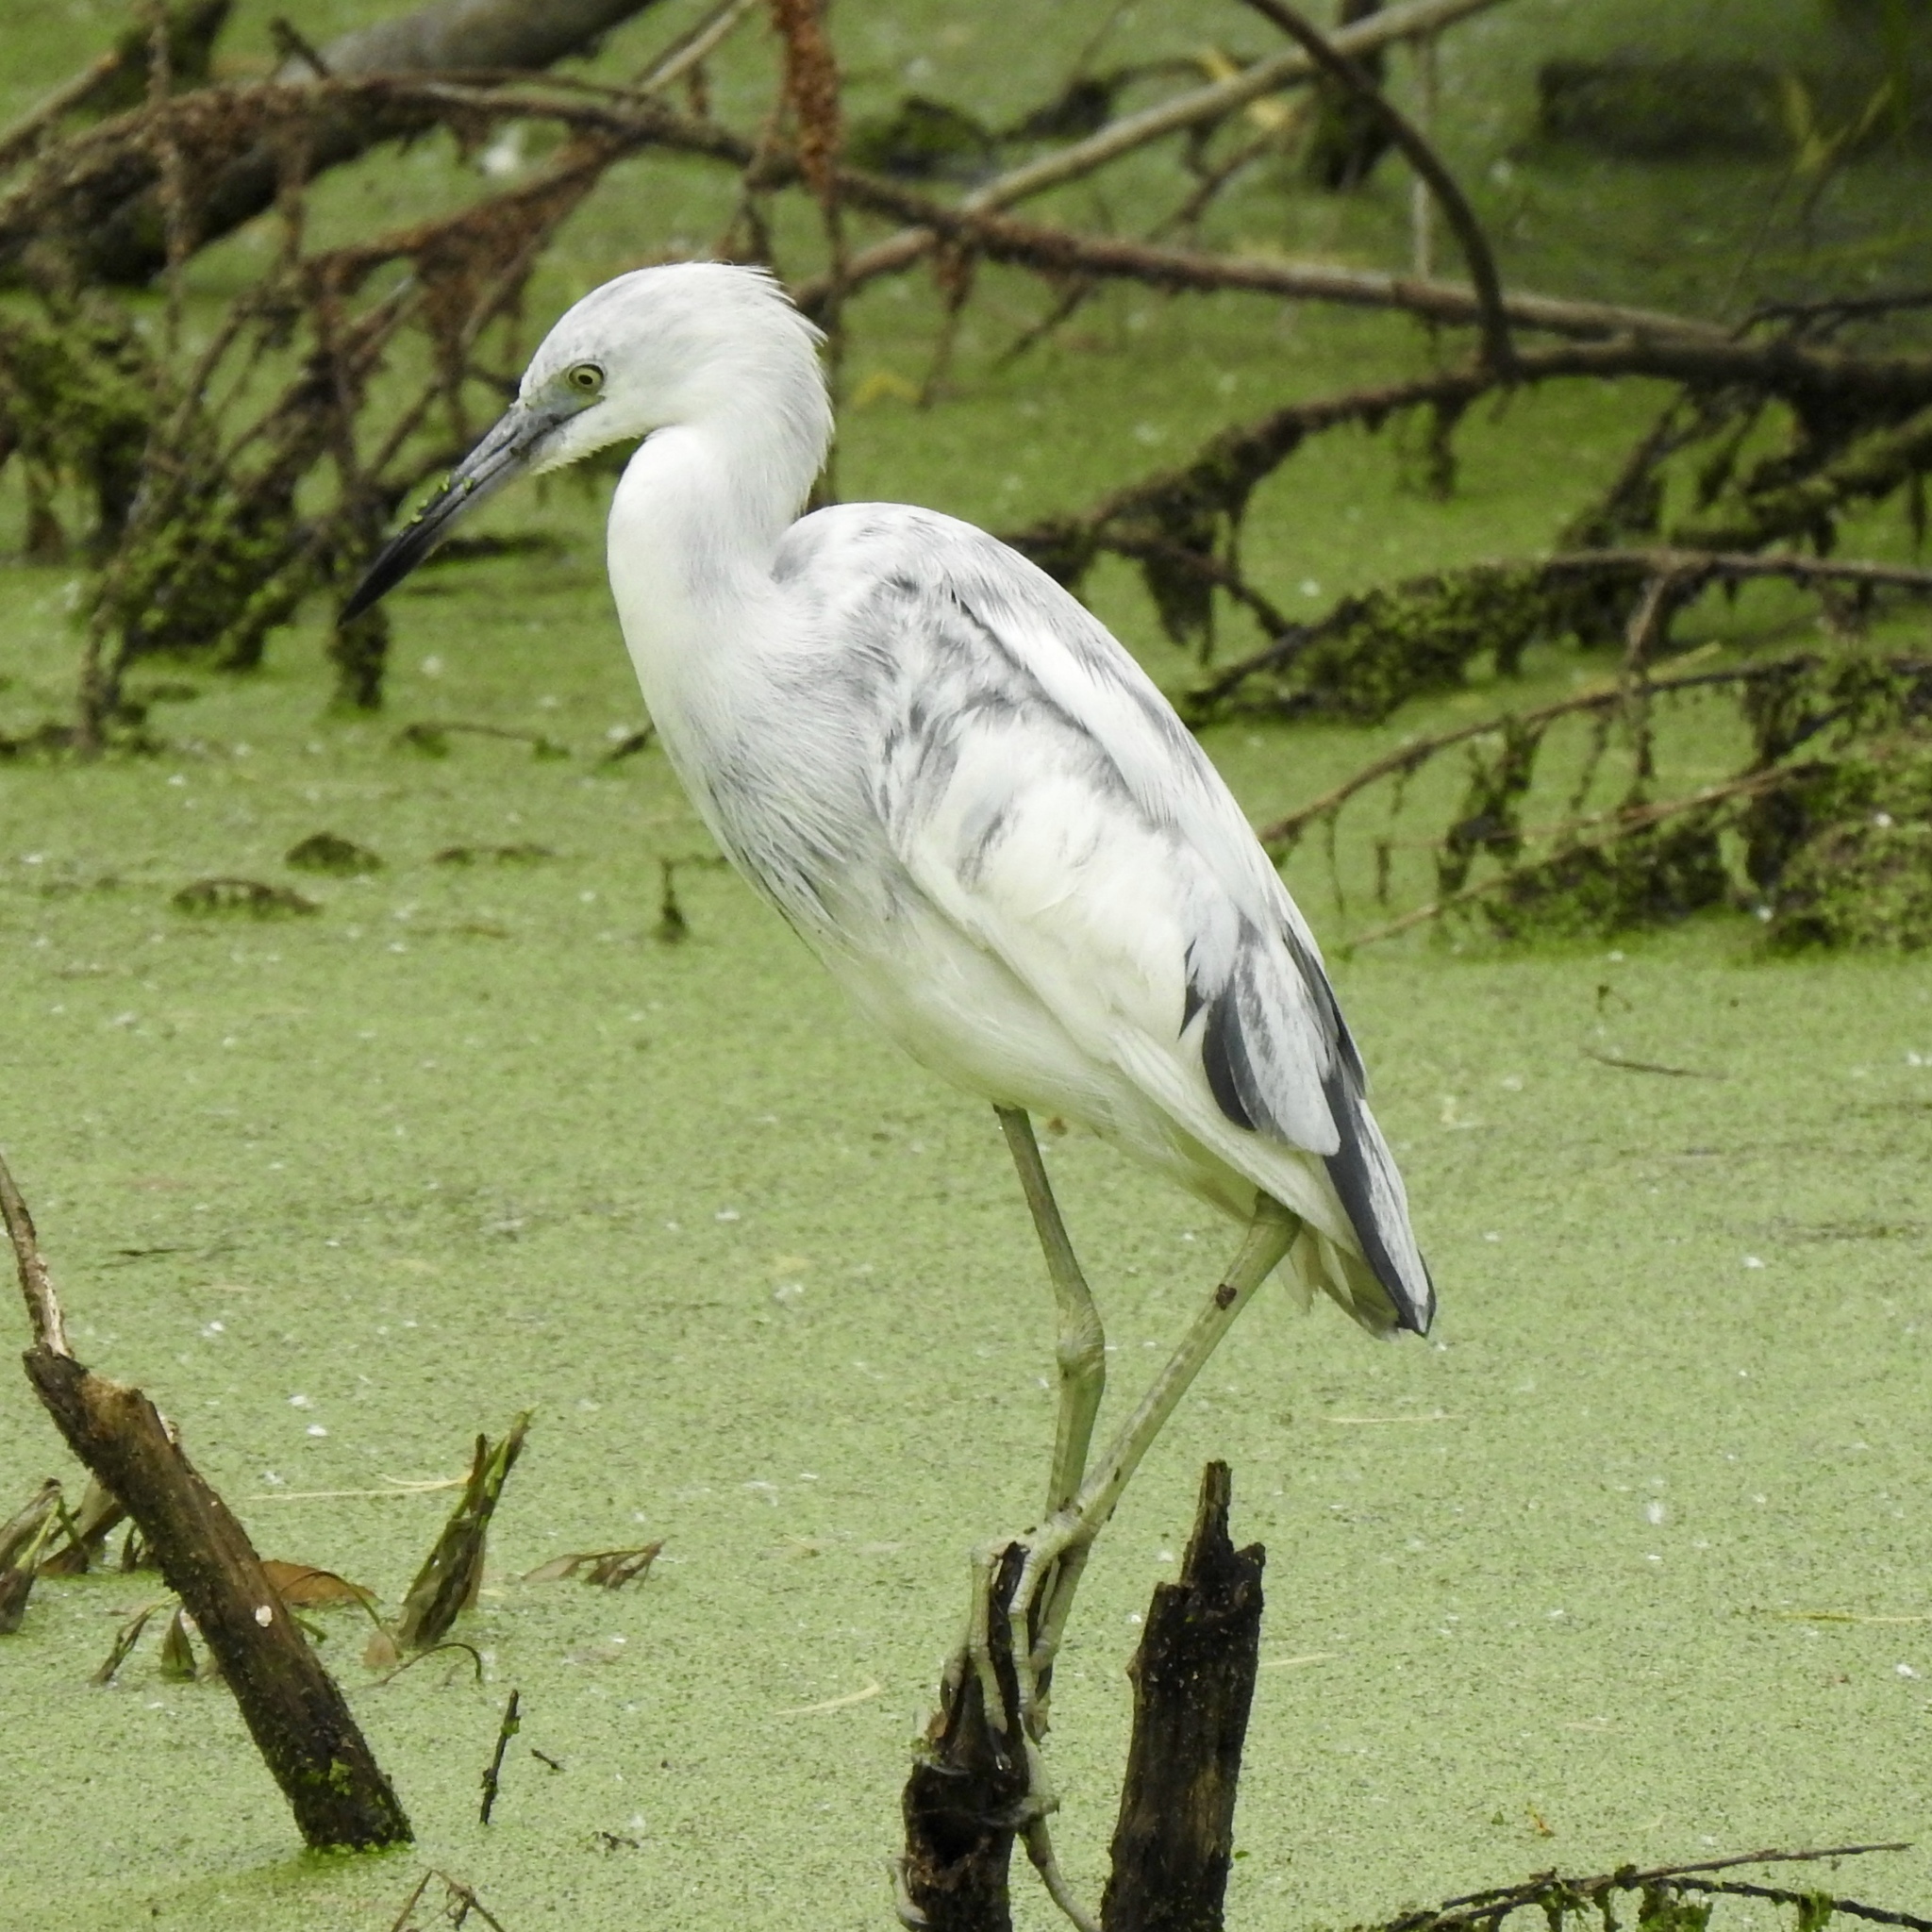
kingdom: Animalia
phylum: Chordata
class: Aves
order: Pelecaniformes
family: Ardeidae
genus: Egretta
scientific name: Egretta caerulea
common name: Little blue heron
